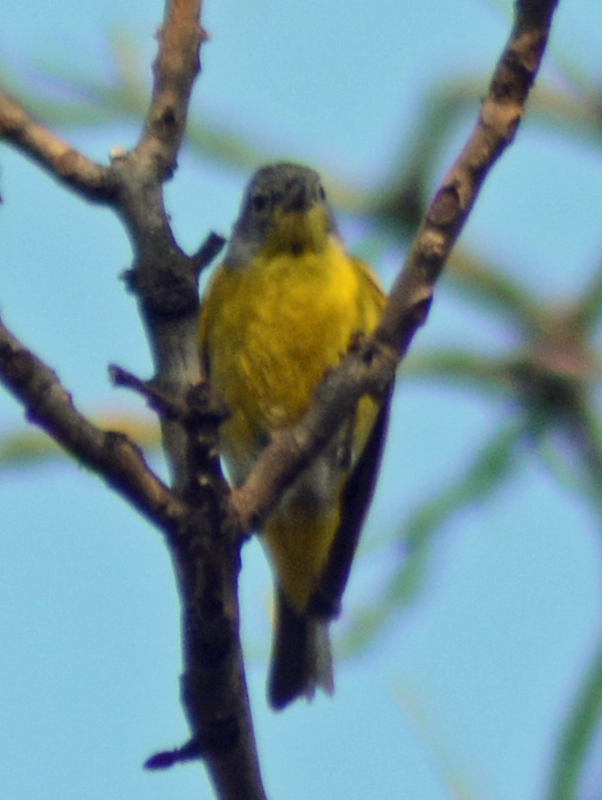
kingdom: Animalia
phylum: Chordata
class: Aves
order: Passeriformes
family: Parulidae
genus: Leiothlypis
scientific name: Leiothlypis ruficapilla
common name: Nashville warbler
